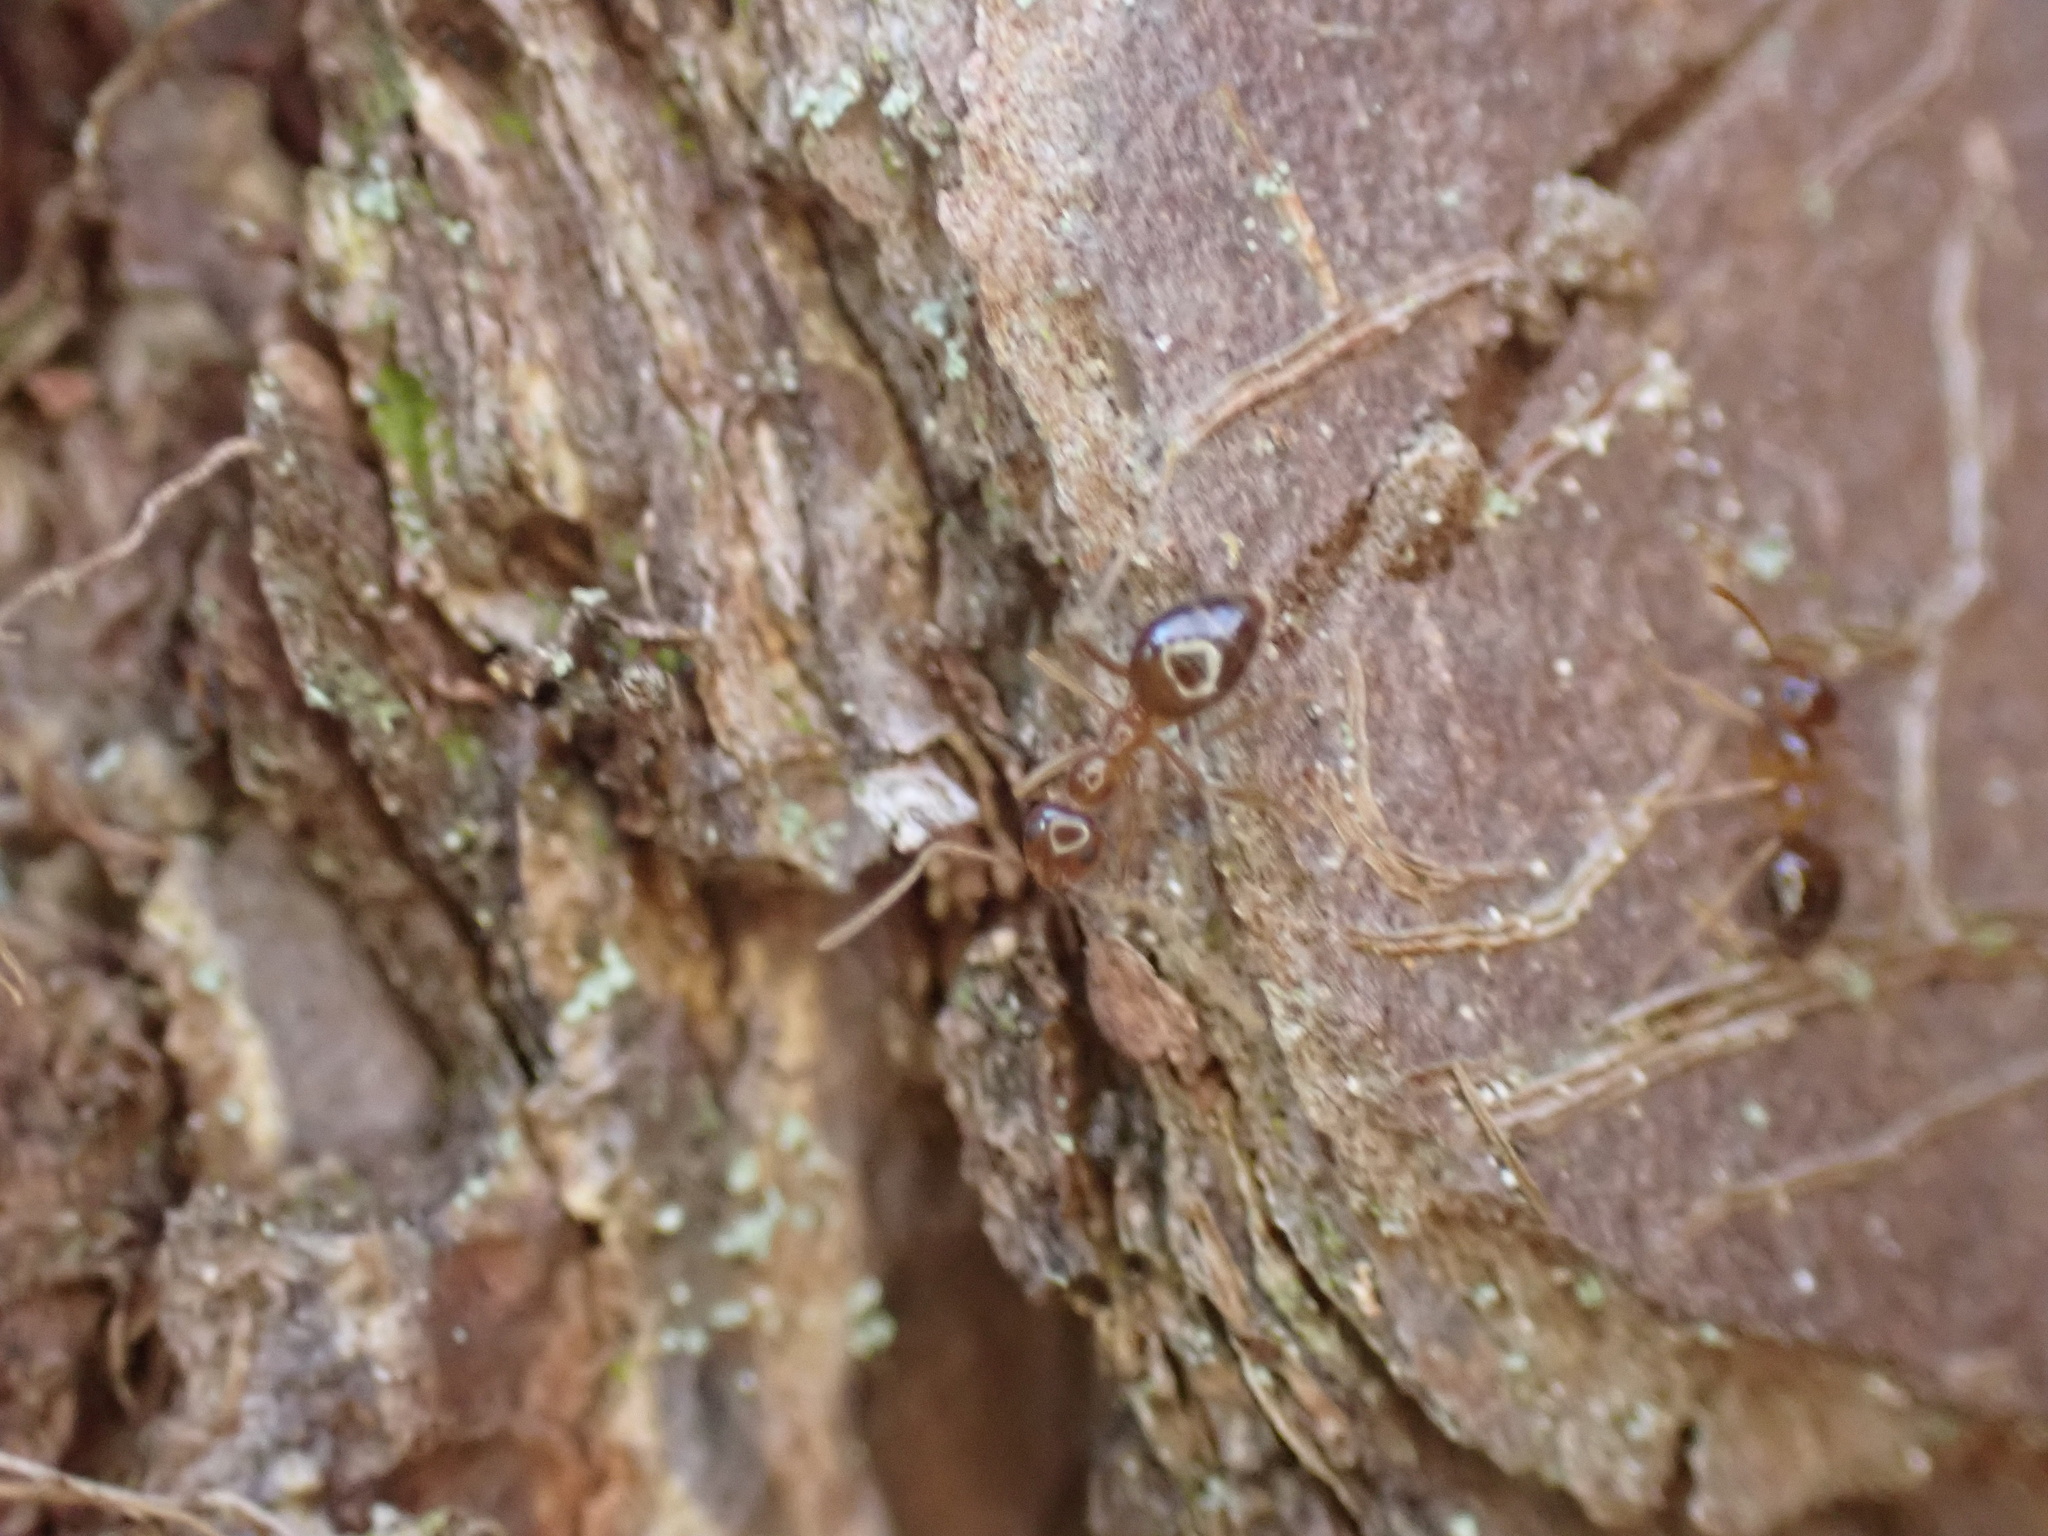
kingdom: Animalia
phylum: Arthropoda
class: Insecta
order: Hymenoptera
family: Formicidae
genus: Prenolepis
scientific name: Prenolepis imparis
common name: Small honey ant
